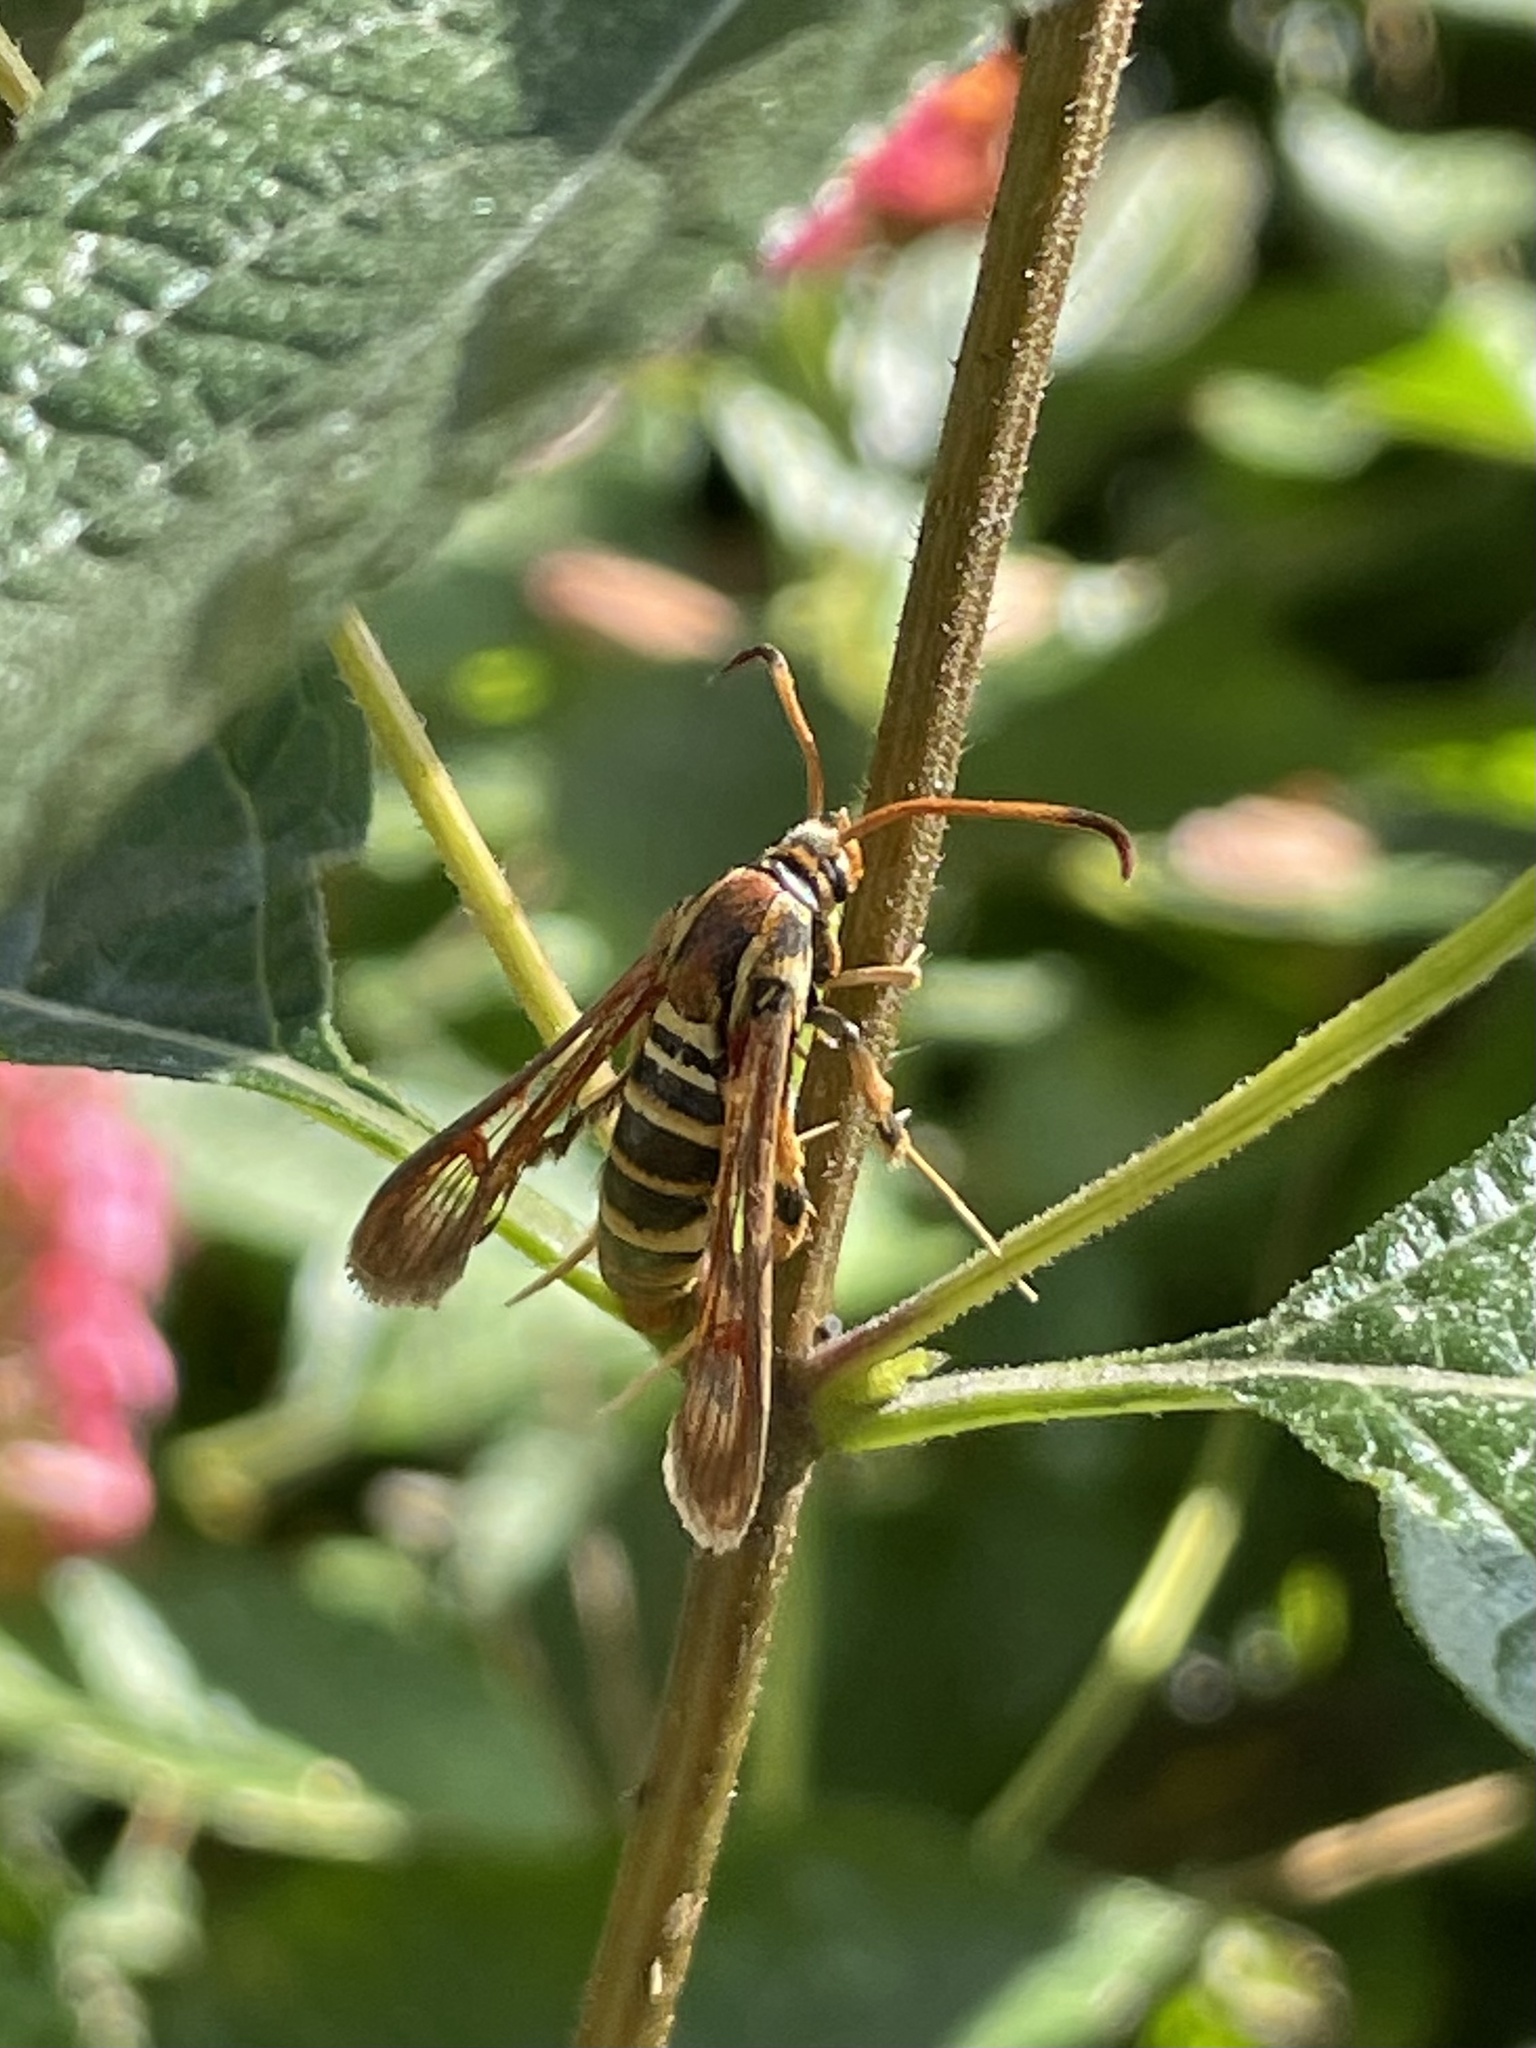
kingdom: Animalia
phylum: Arthropoda
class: Insecta
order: Lepidoptera
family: Sesiidae
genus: Carmenta
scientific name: Carmenta armasata
